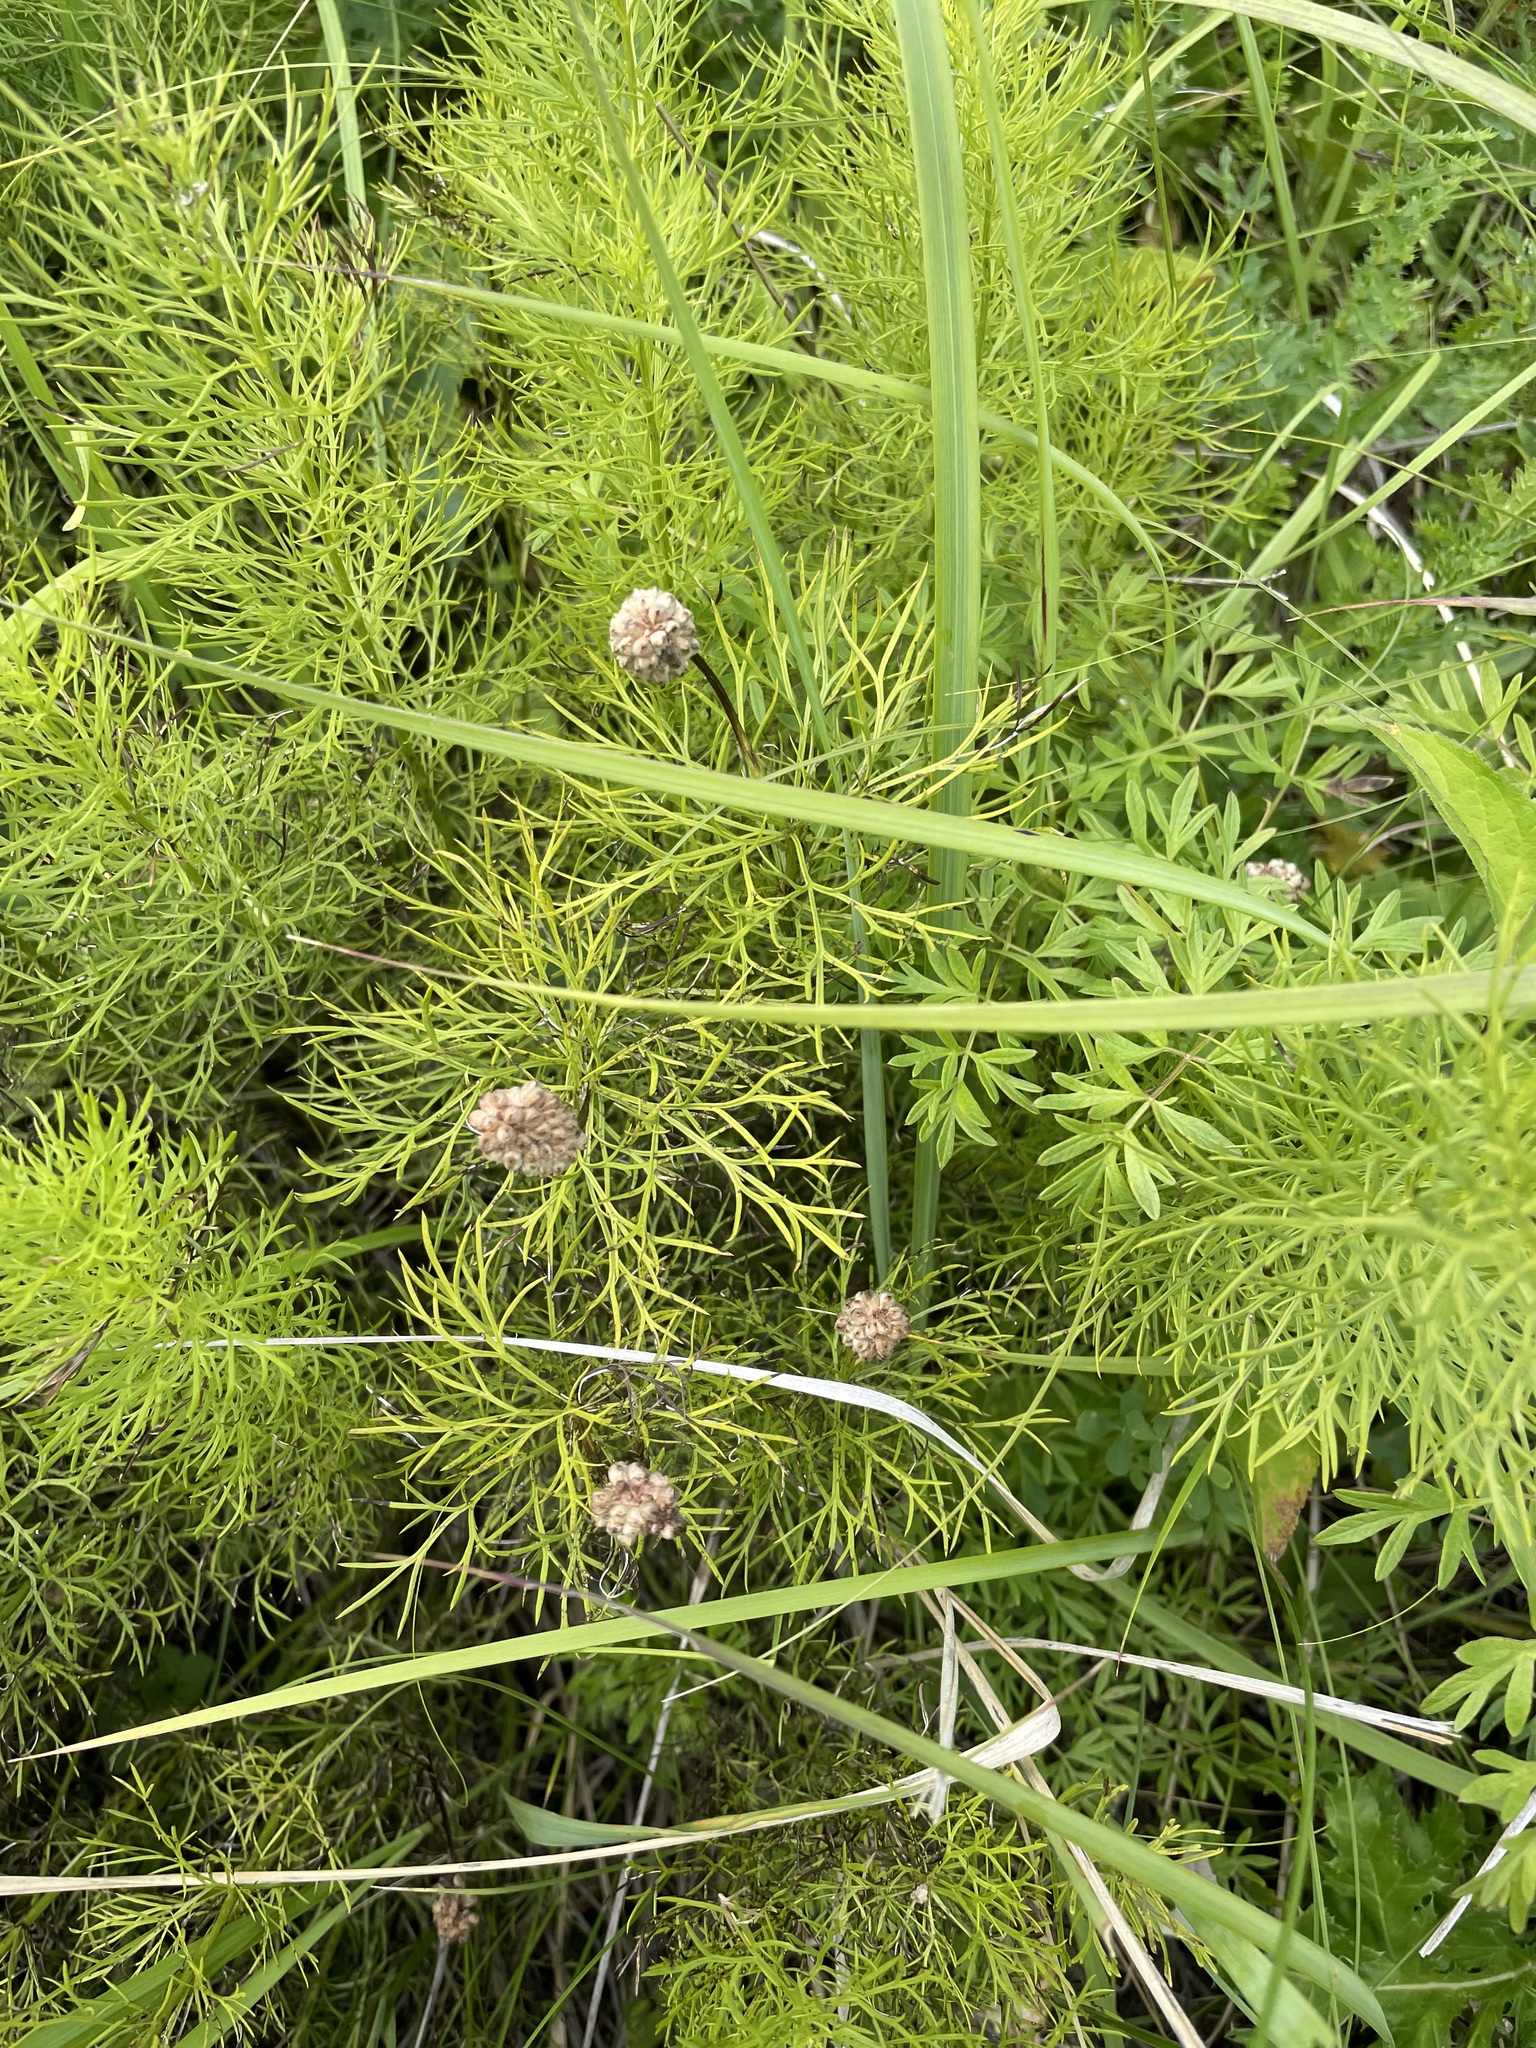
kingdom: Plantae
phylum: Tracheophyta
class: Magnoliopsida
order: Ranunculales
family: Ranunculaceae
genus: Adonis
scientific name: Adonis vernalis
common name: Yellow pheasants-eye
